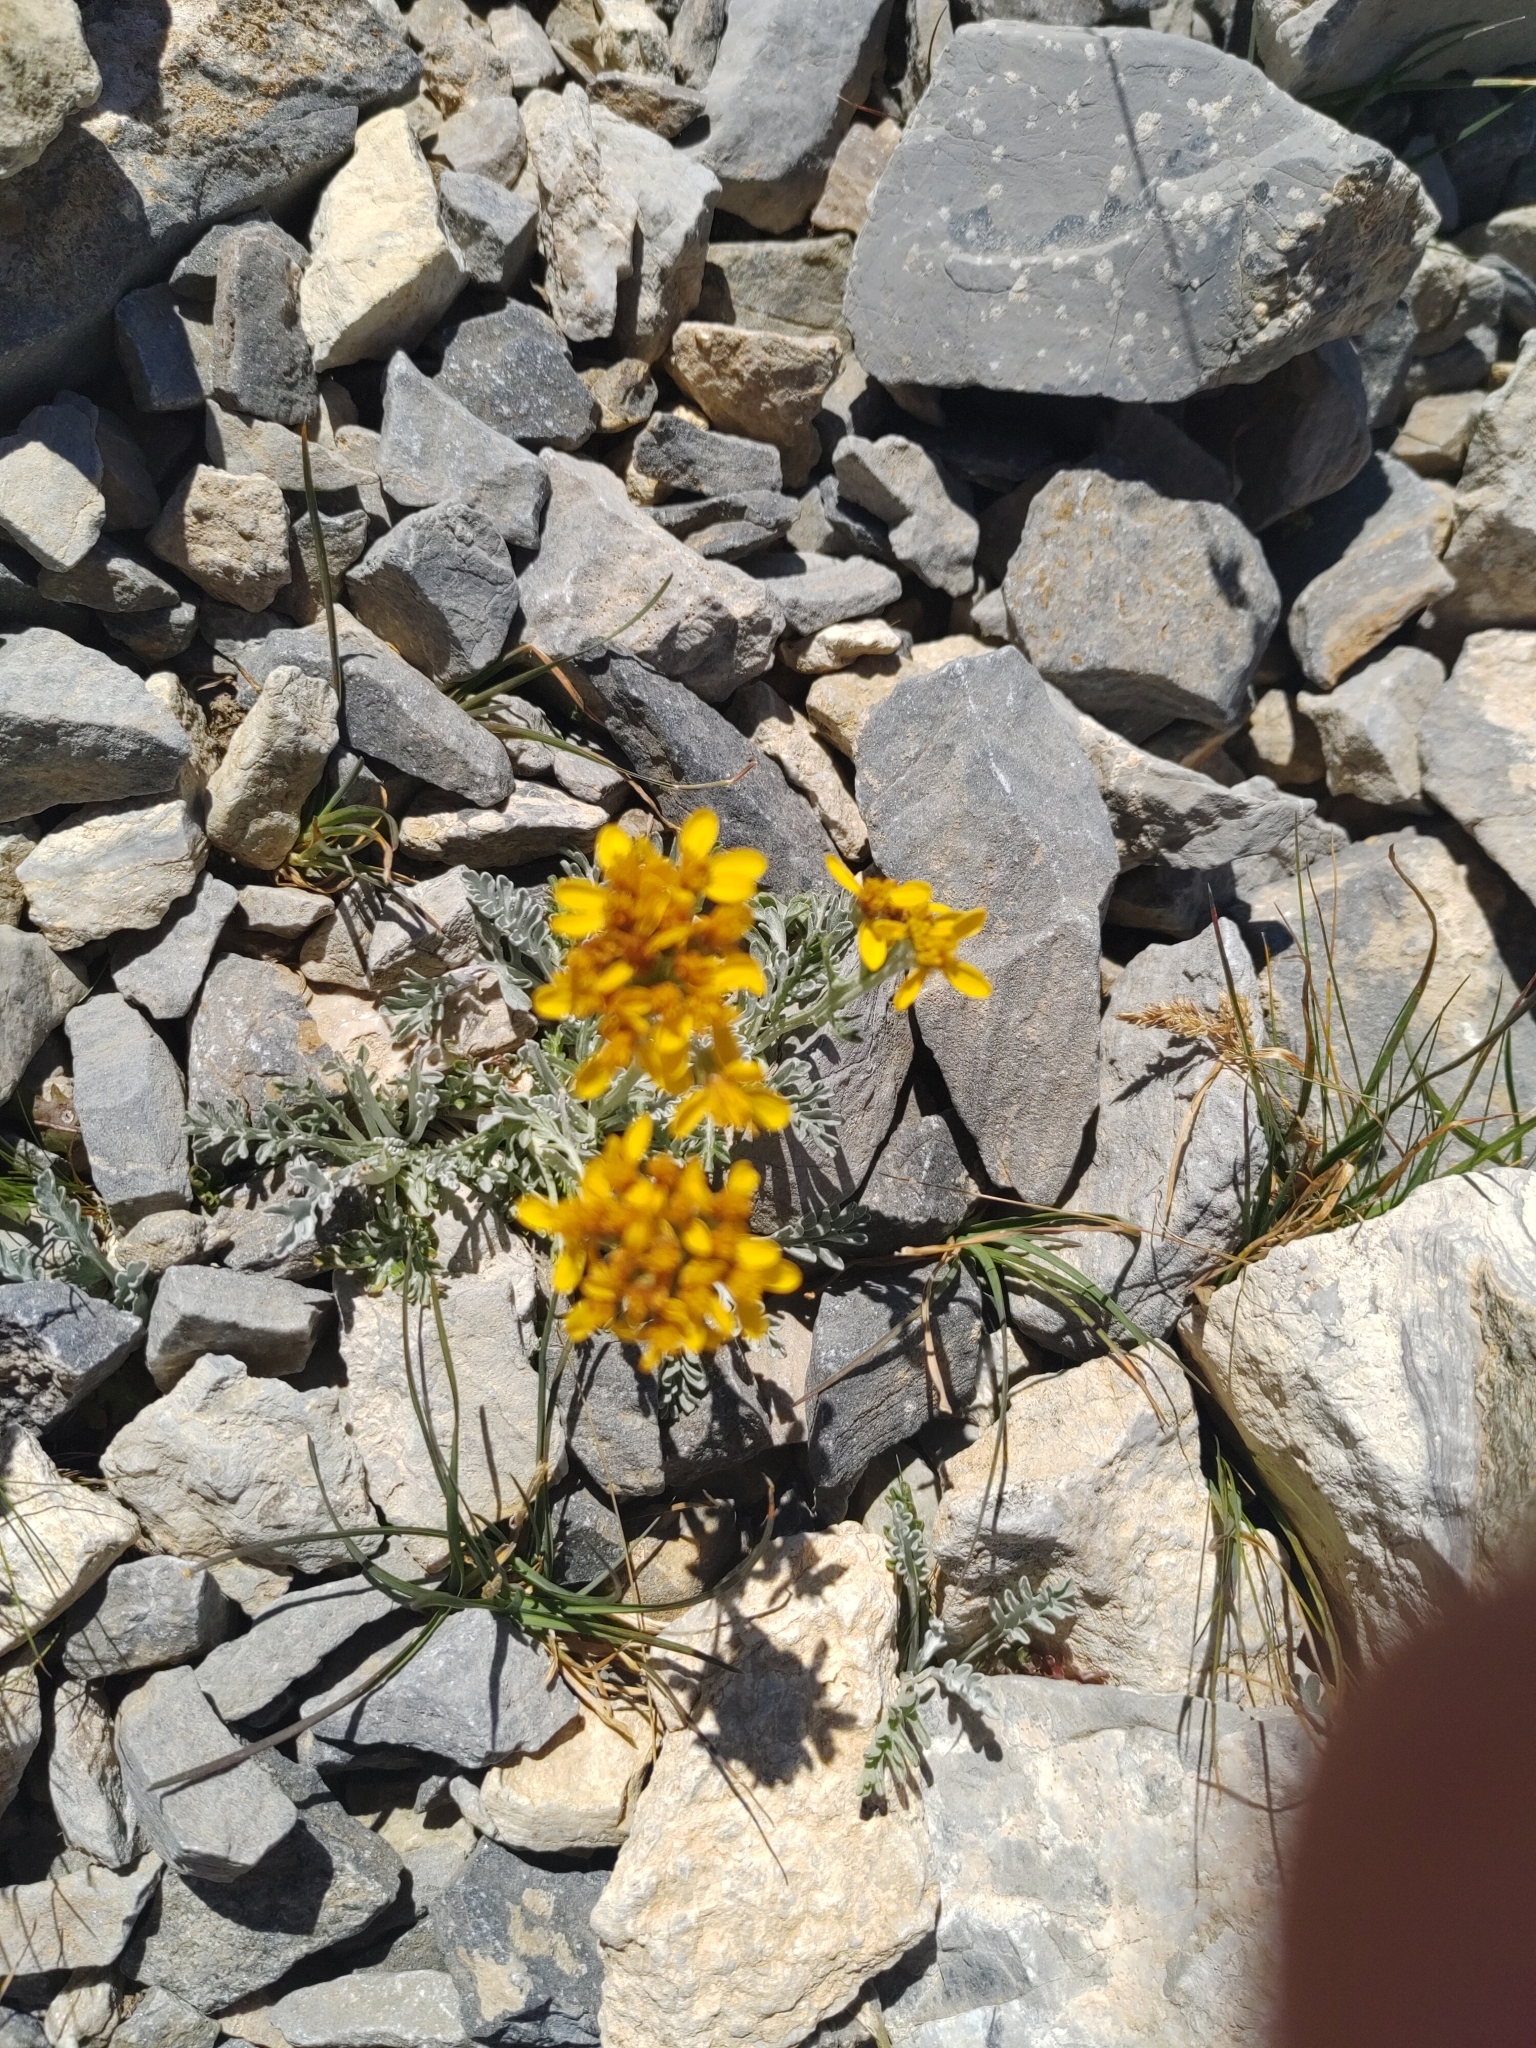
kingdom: Plantae
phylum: Tracheophyta
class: Magnoliopsida
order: Asterales
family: Asteraceae
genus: Jacobaea
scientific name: Jacobaea incana
